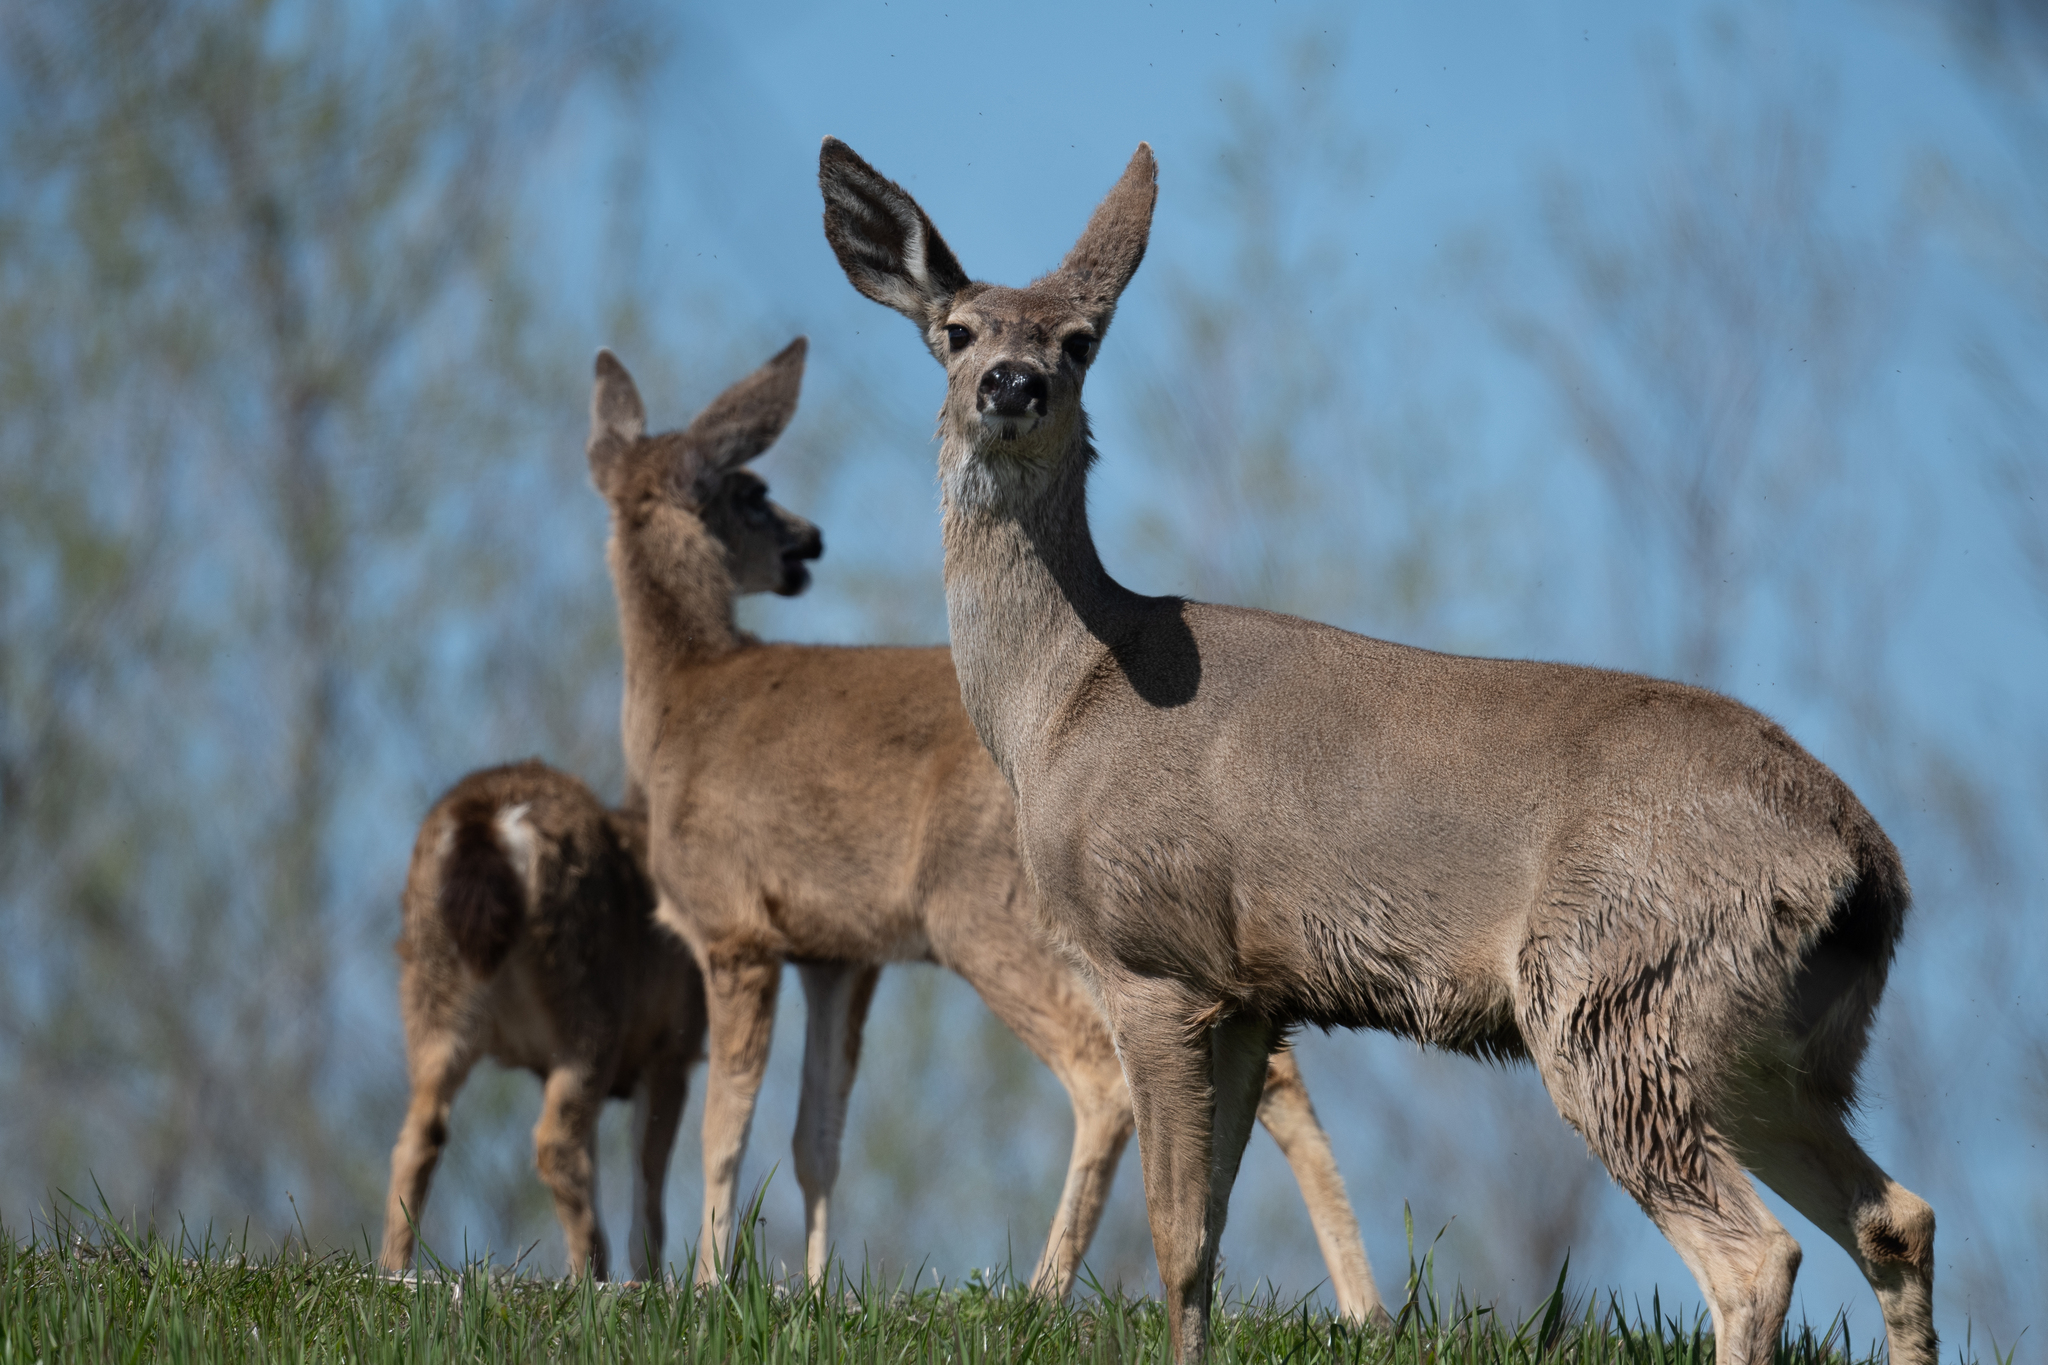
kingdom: Animalia
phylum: Chordata
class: Mammalia
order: Artiodactyla
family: Cervidae
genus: Odocoileus
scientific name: Odocoileus hemionus
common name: Mule deer
